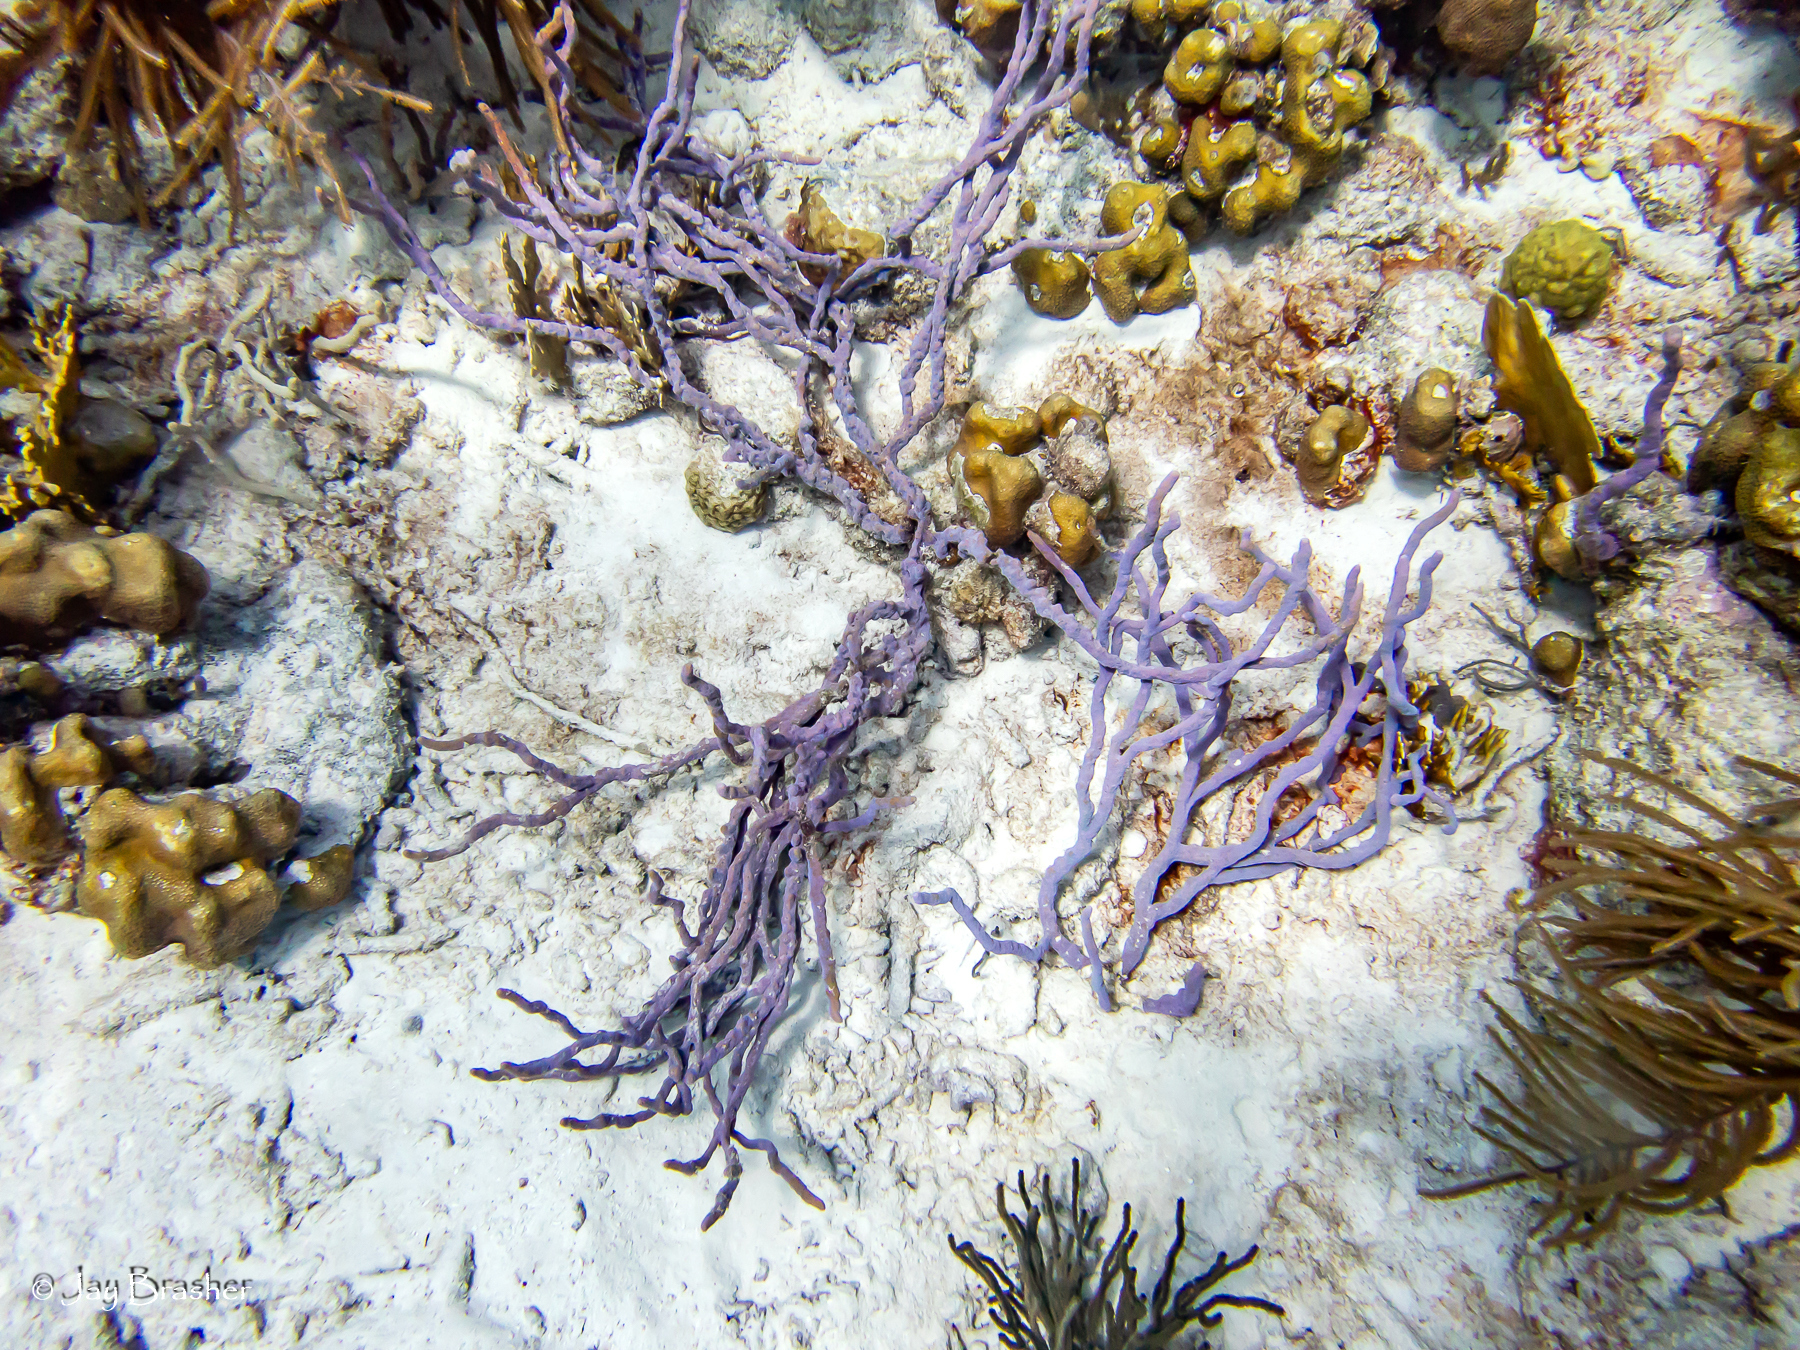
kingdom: Animalia
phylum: Porifera
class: Demospongiae
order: Verongiida
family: Aplysinidae
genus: Aplysina
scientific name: Aplysina cauliformis
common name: Branching candle sponge
